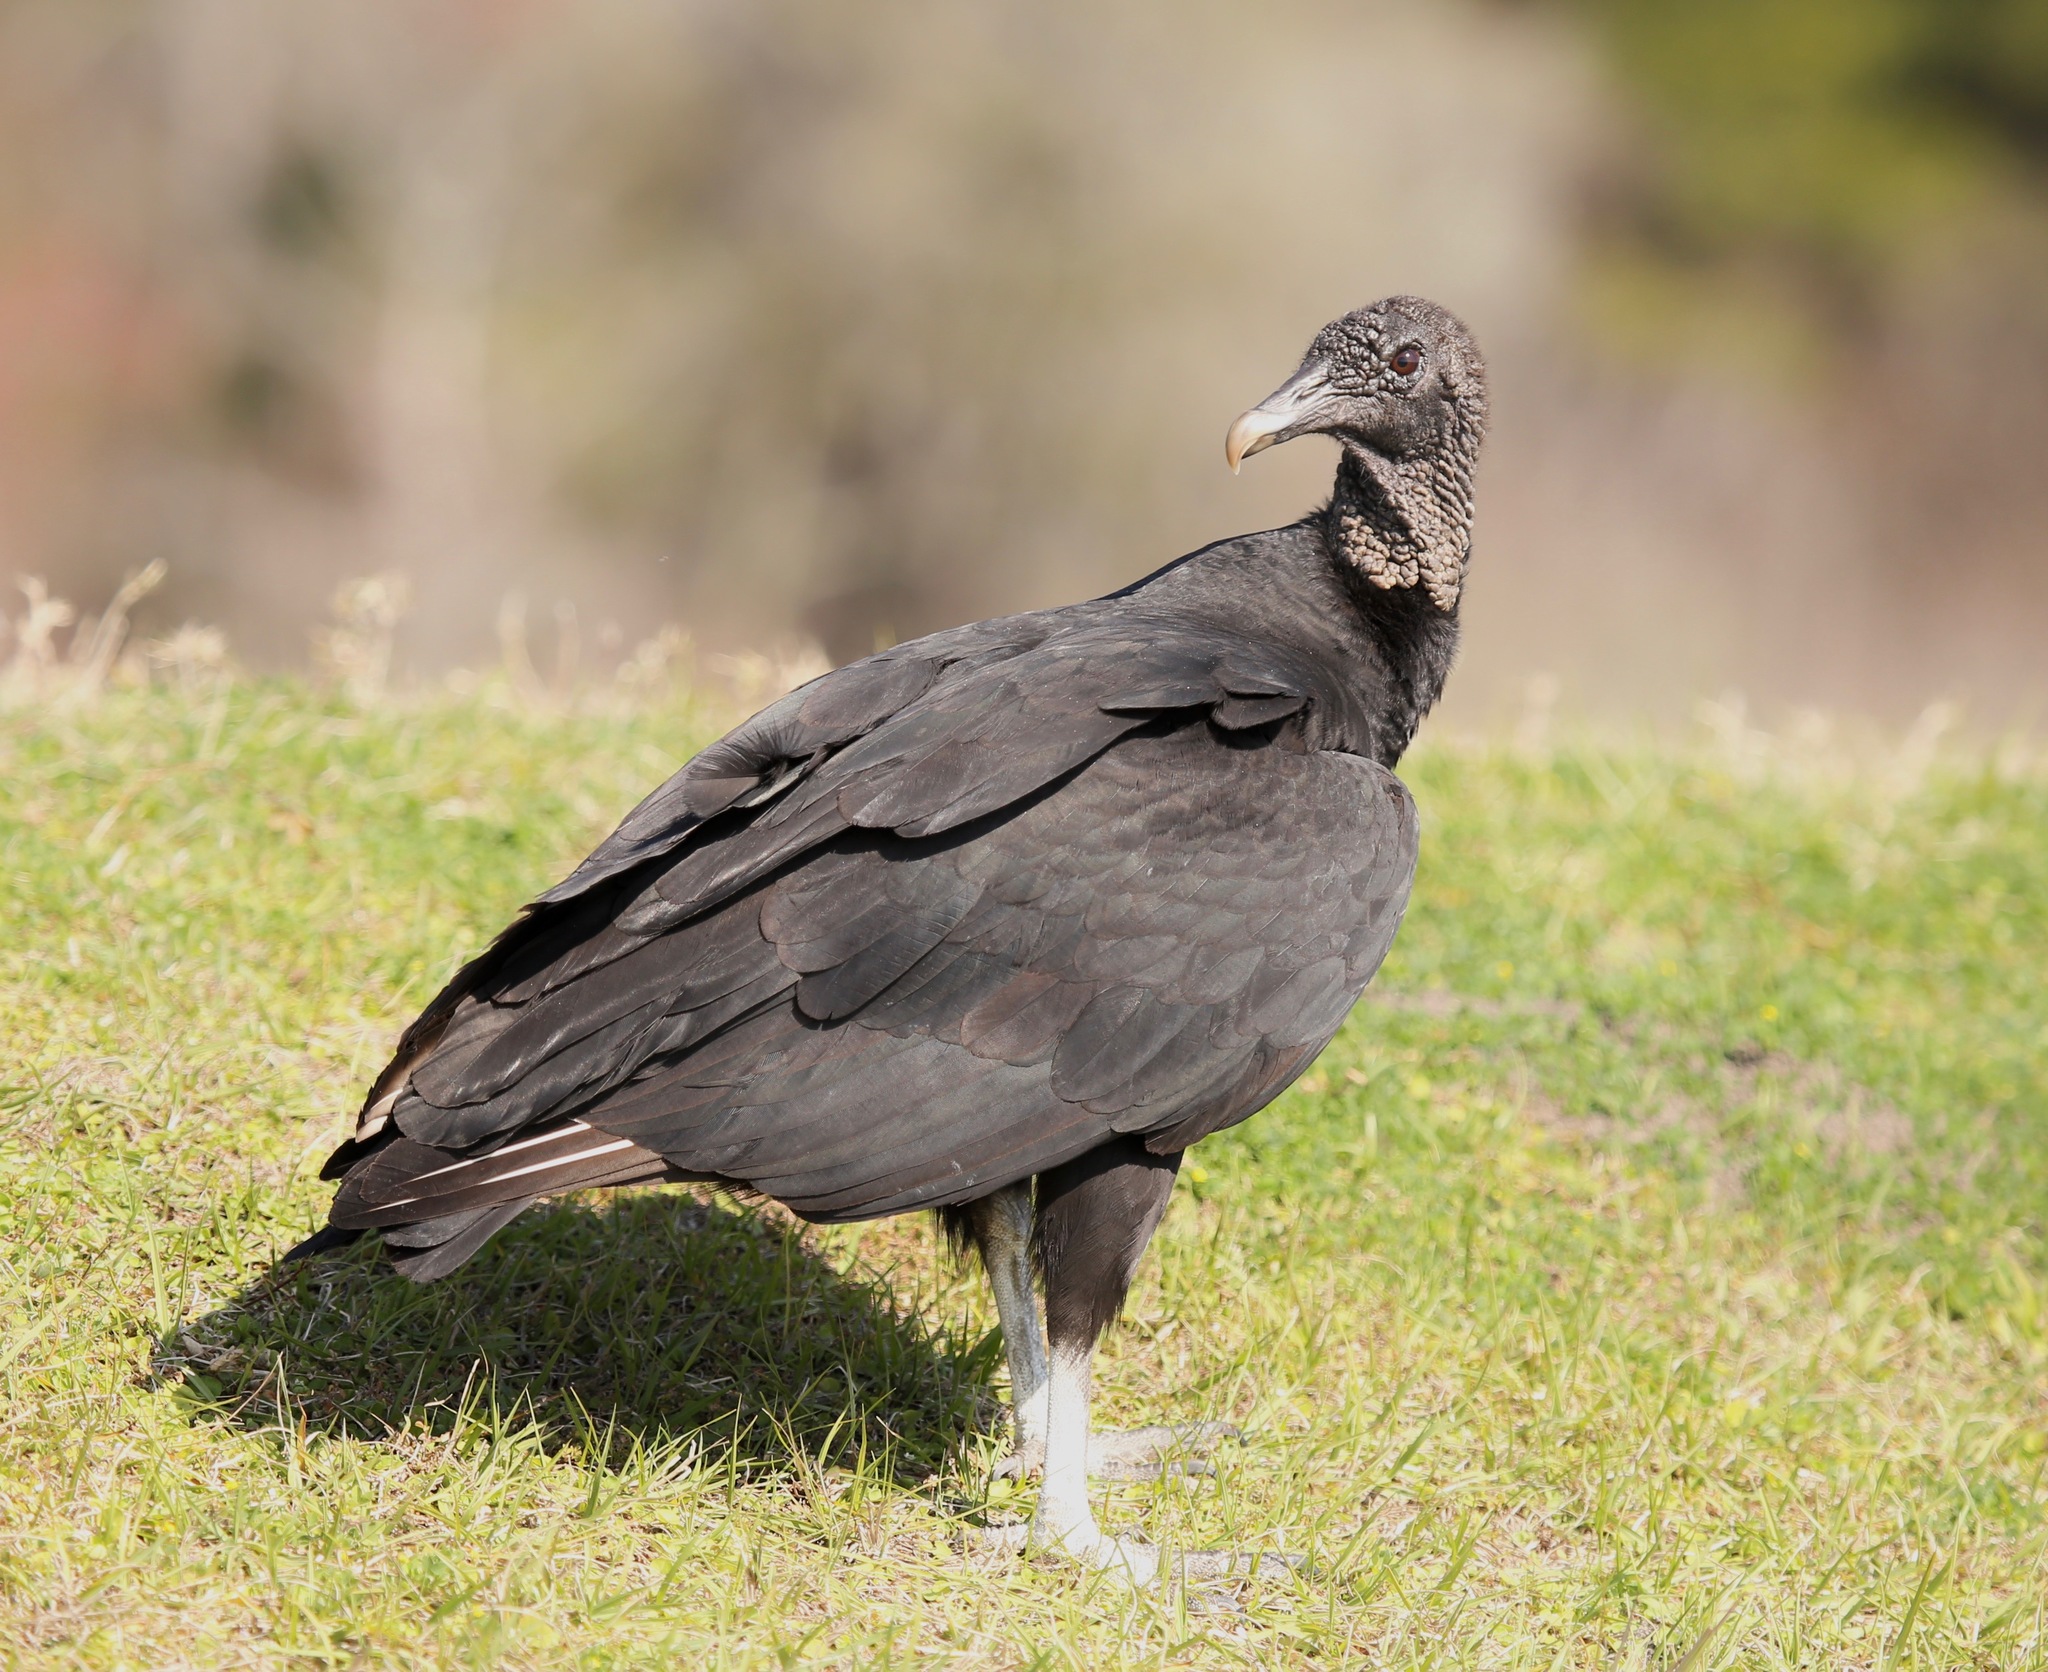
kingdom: Animalia
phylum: Chordata
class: Aves
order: Accipitriformes
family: Cathartidae
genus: Coragyps
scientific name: Coragyps atratus
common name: Black vulture
